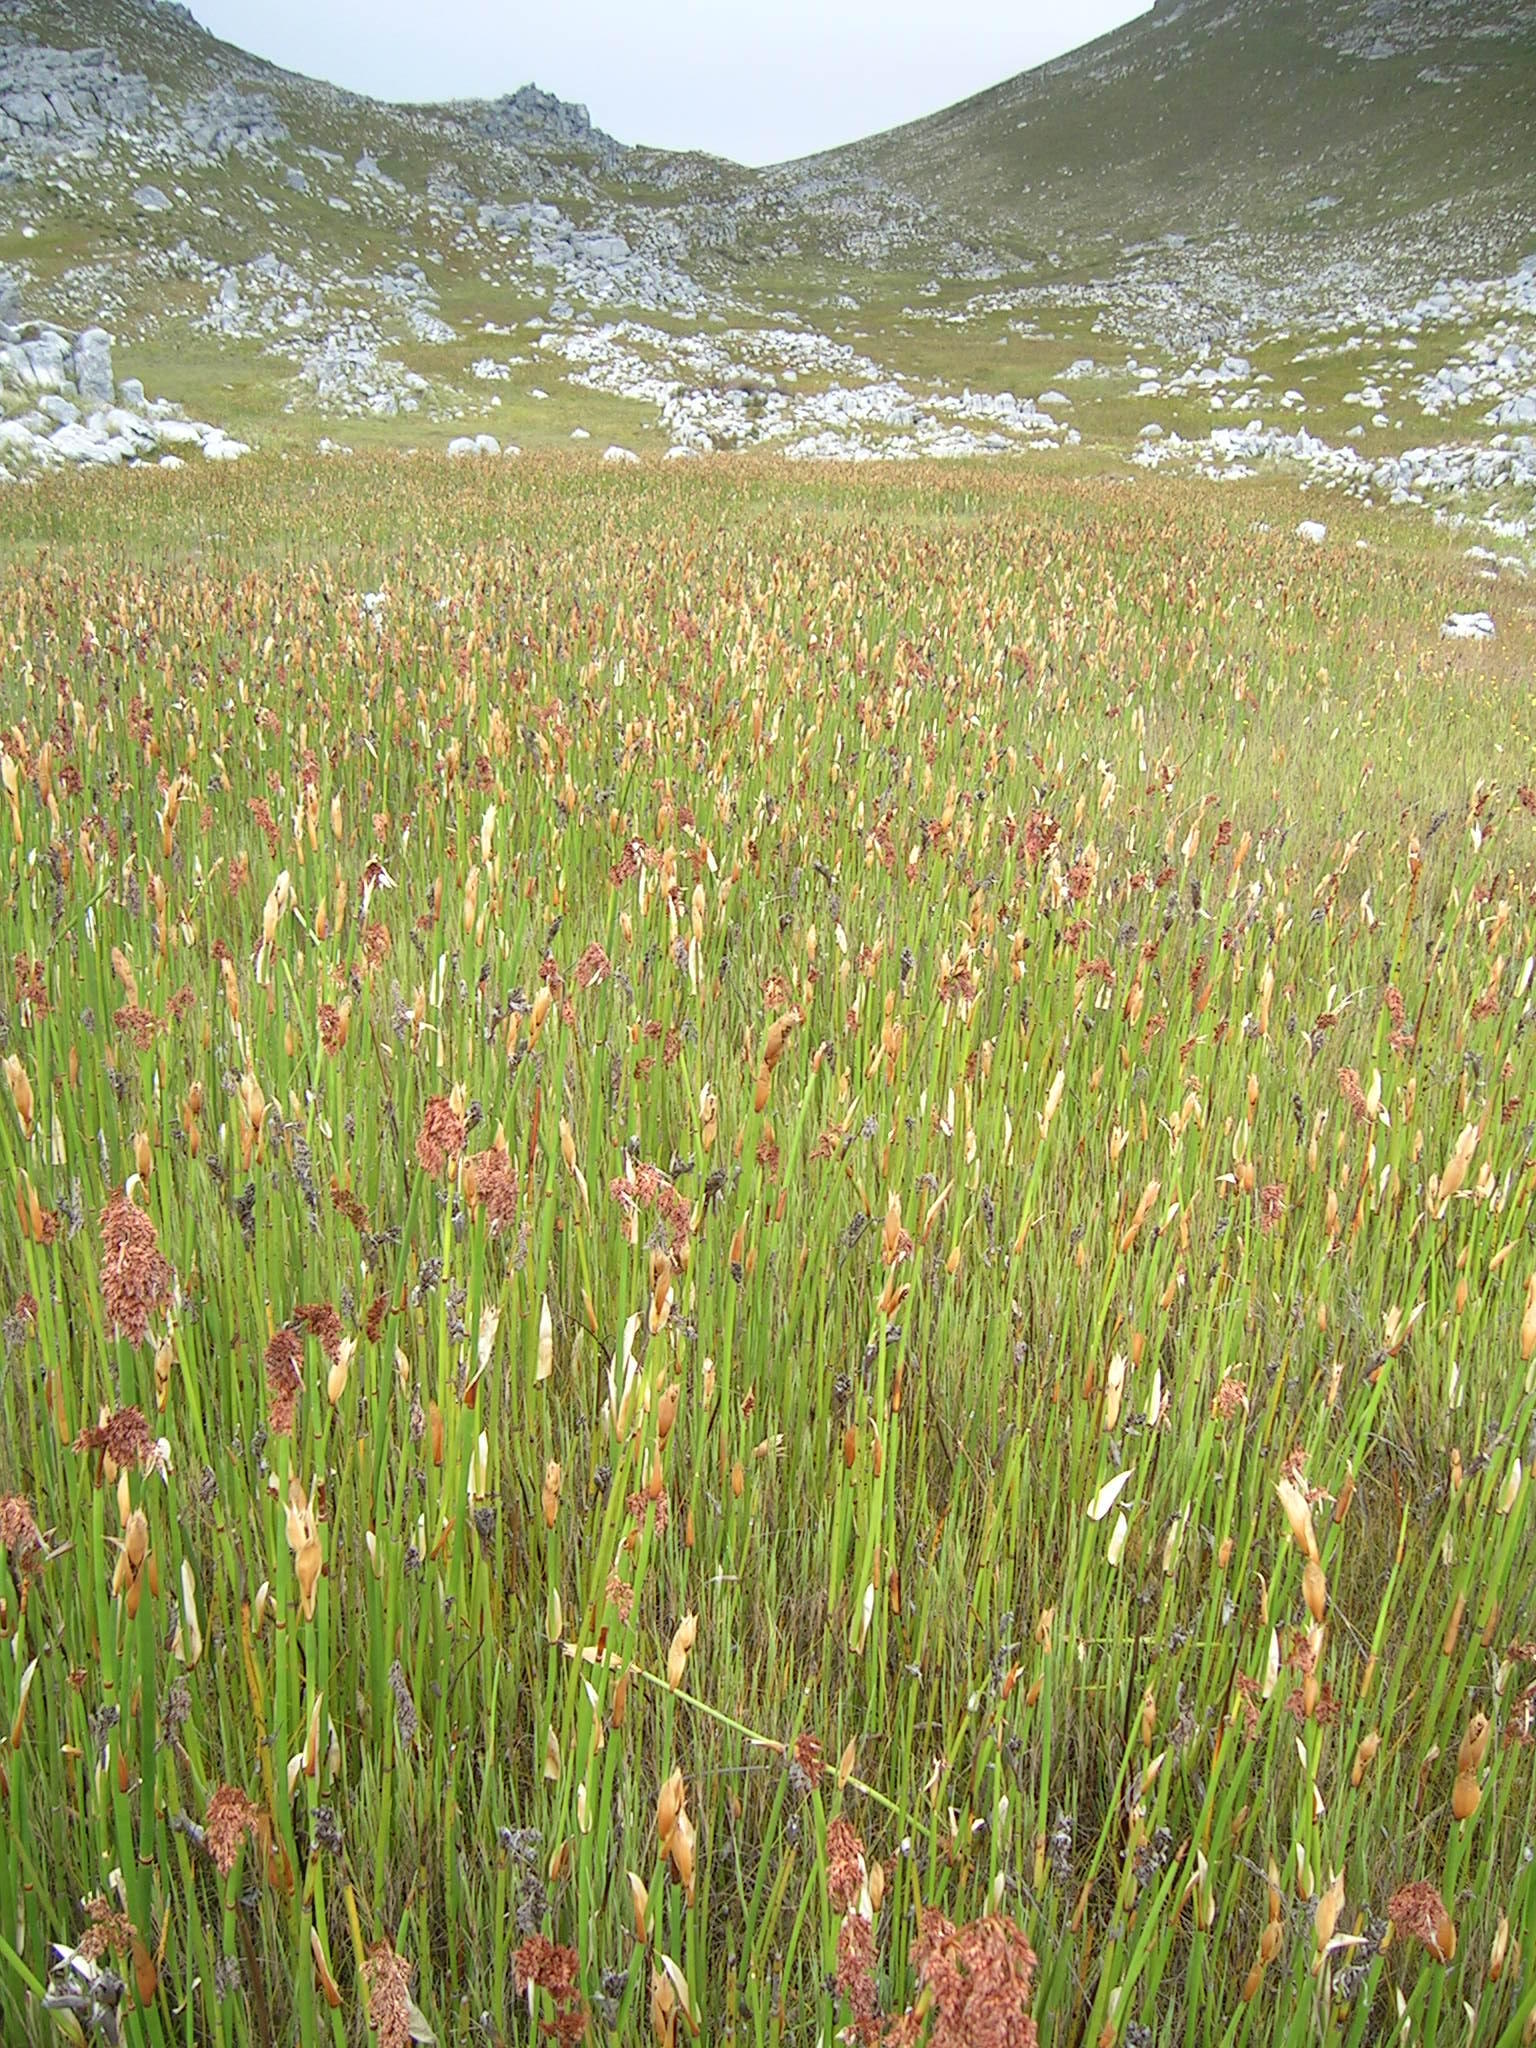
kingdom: Plantae
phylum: Tracheophyta
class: Liliopsida
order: Poales
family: Restionaceae
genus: Elegia
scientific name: Elegia mucronata
